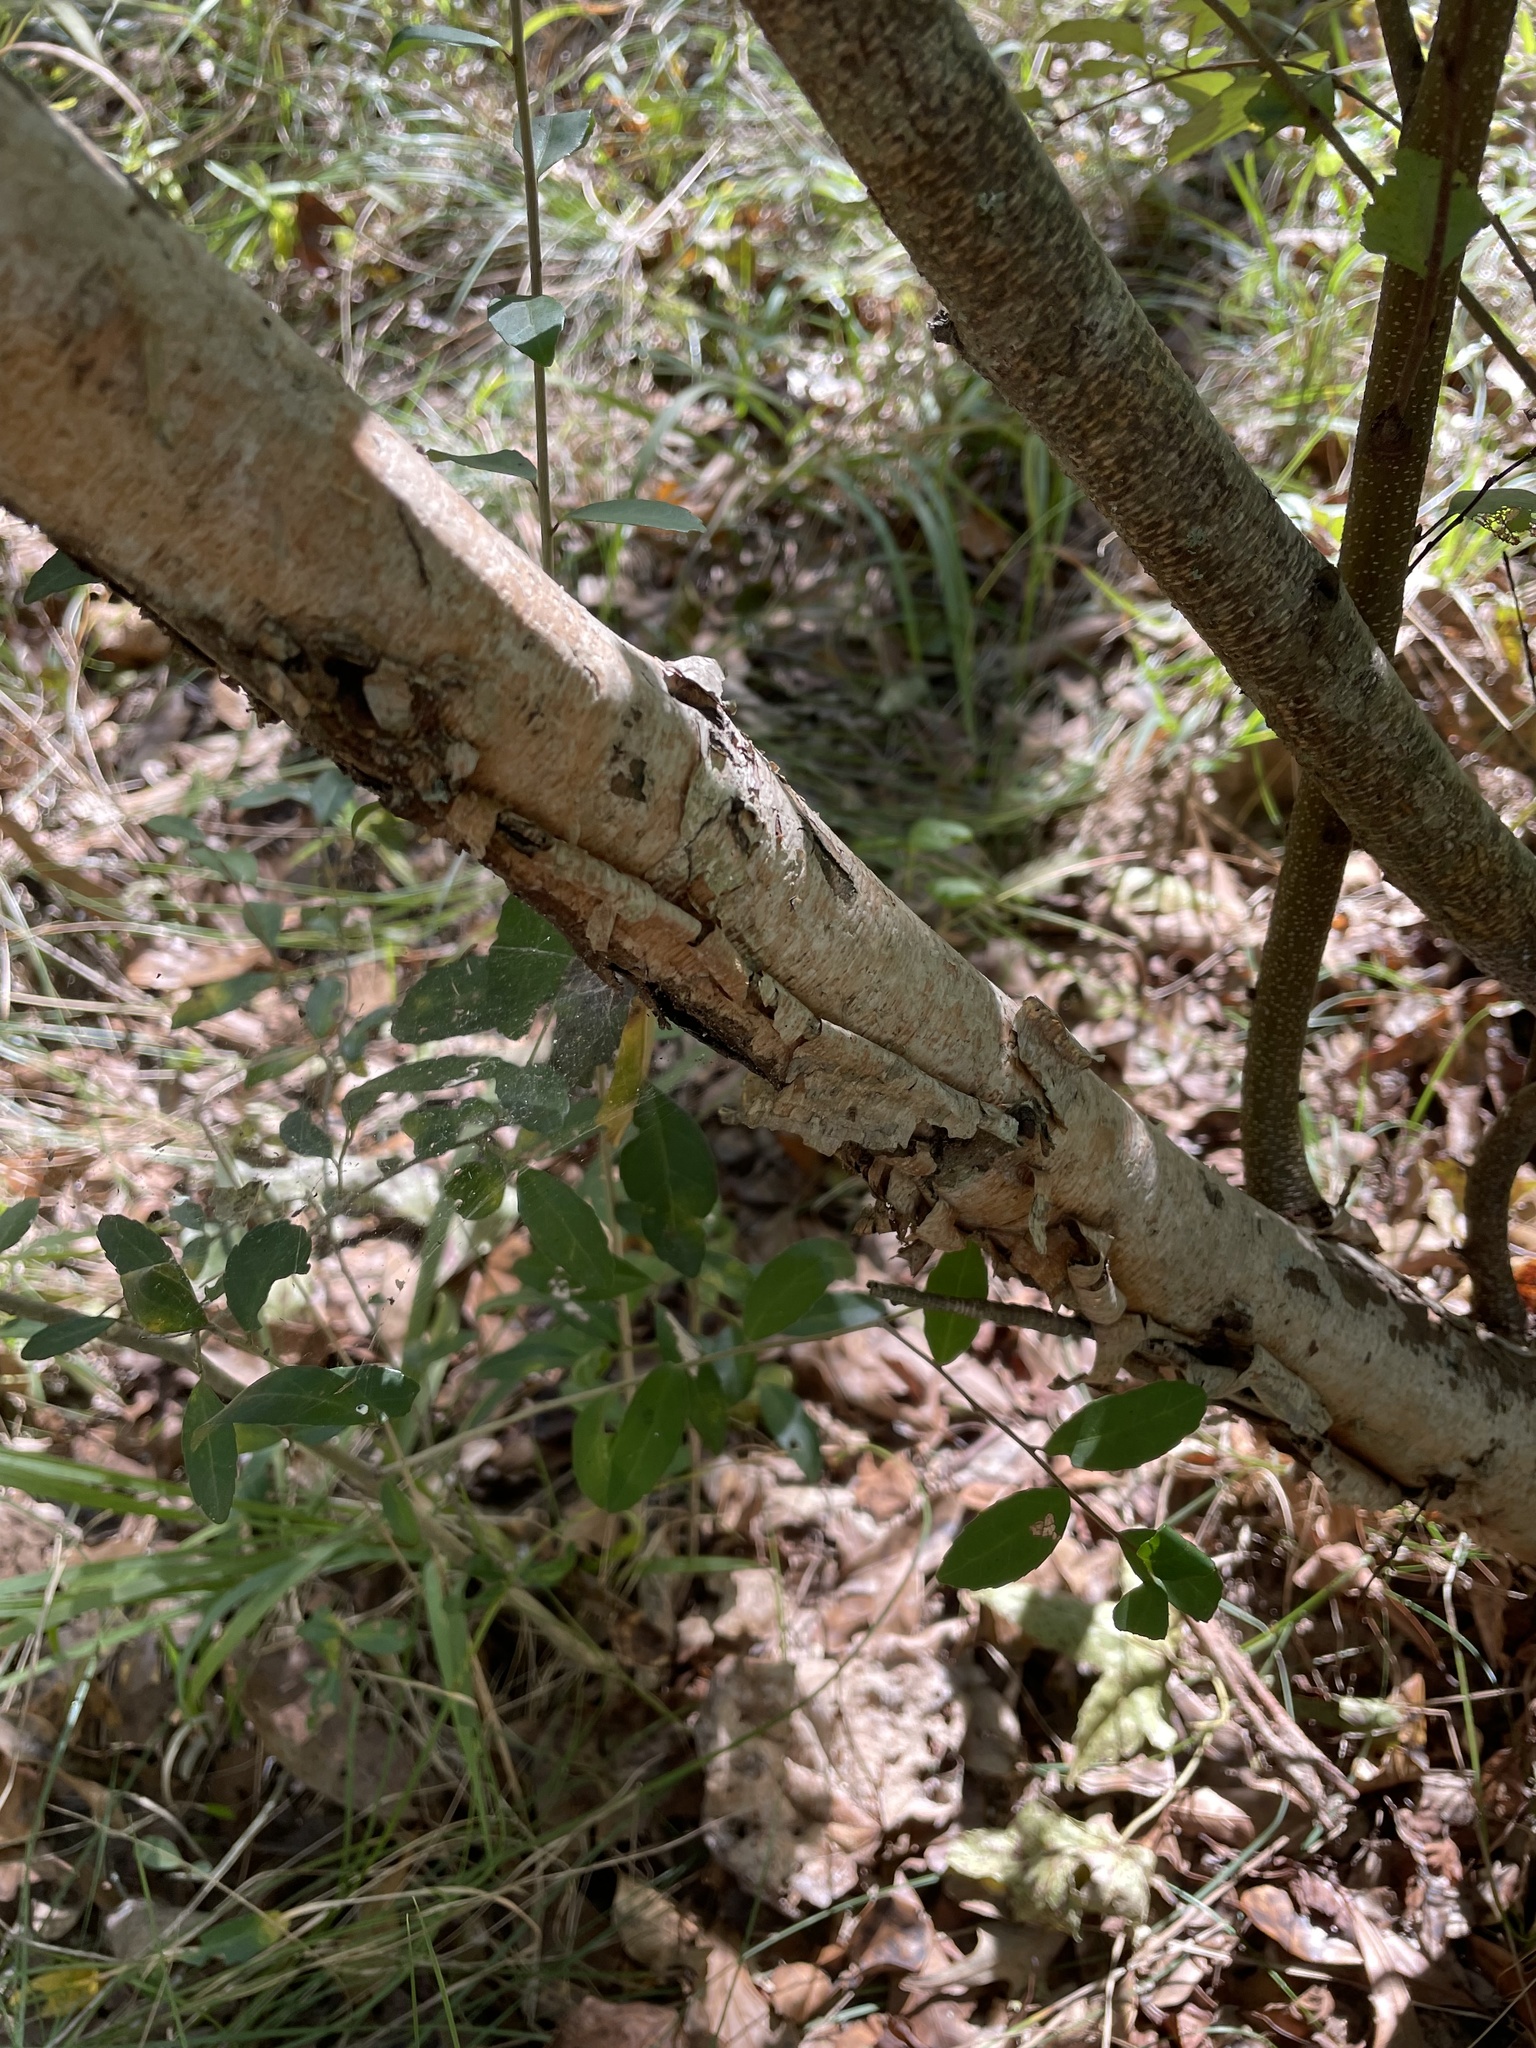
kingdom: Plantae
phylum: Tracheophyta
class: Magnoliopsida
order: Fagales
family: Betulaceae
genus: Betula
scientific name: Betula nigra
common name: Black birch
